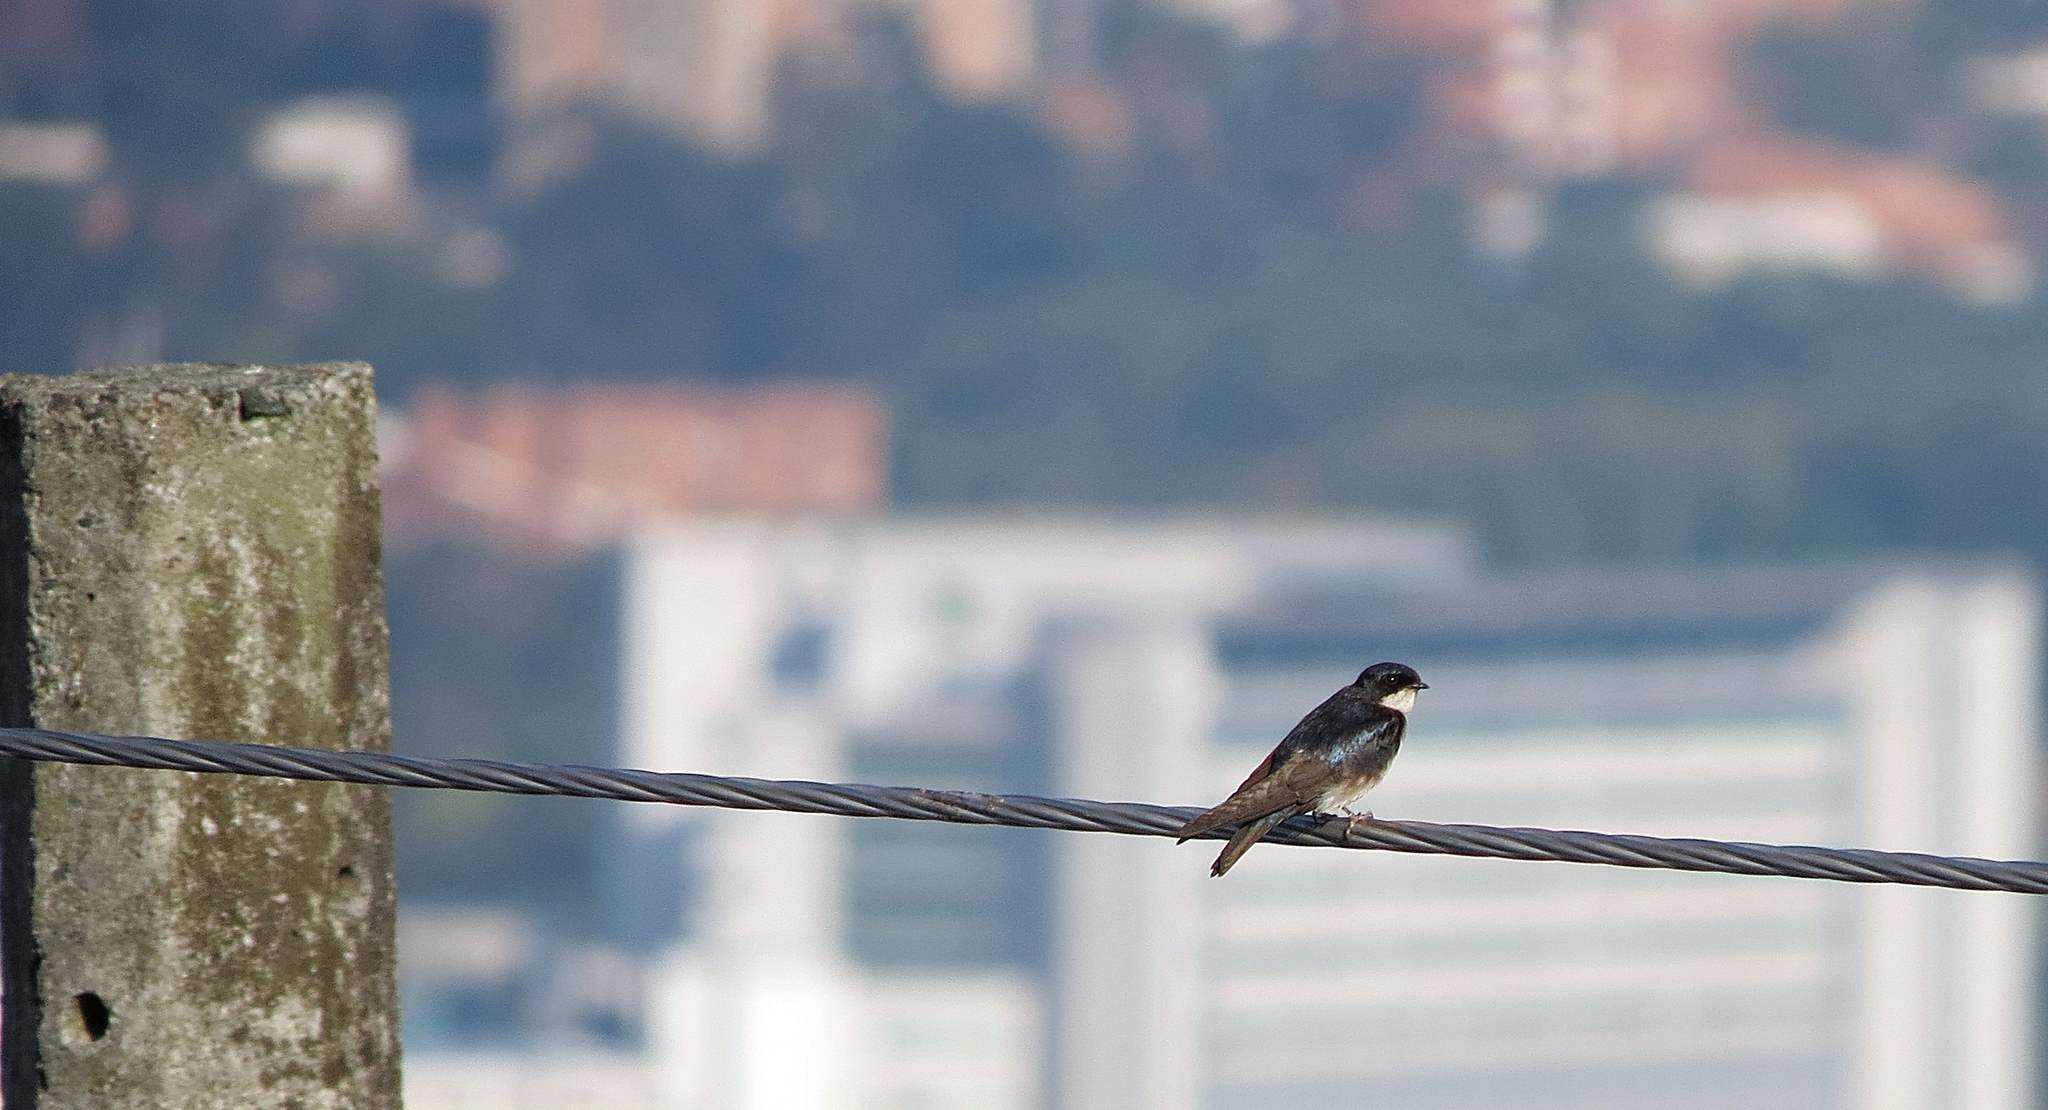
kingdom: Animalia
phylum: Chordata
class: Aves
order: Passeriformes
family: Hirundinidae
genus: Notiochelidon
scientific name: Notiochelidon cyanoleuca
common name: Blue-and-white swallow
